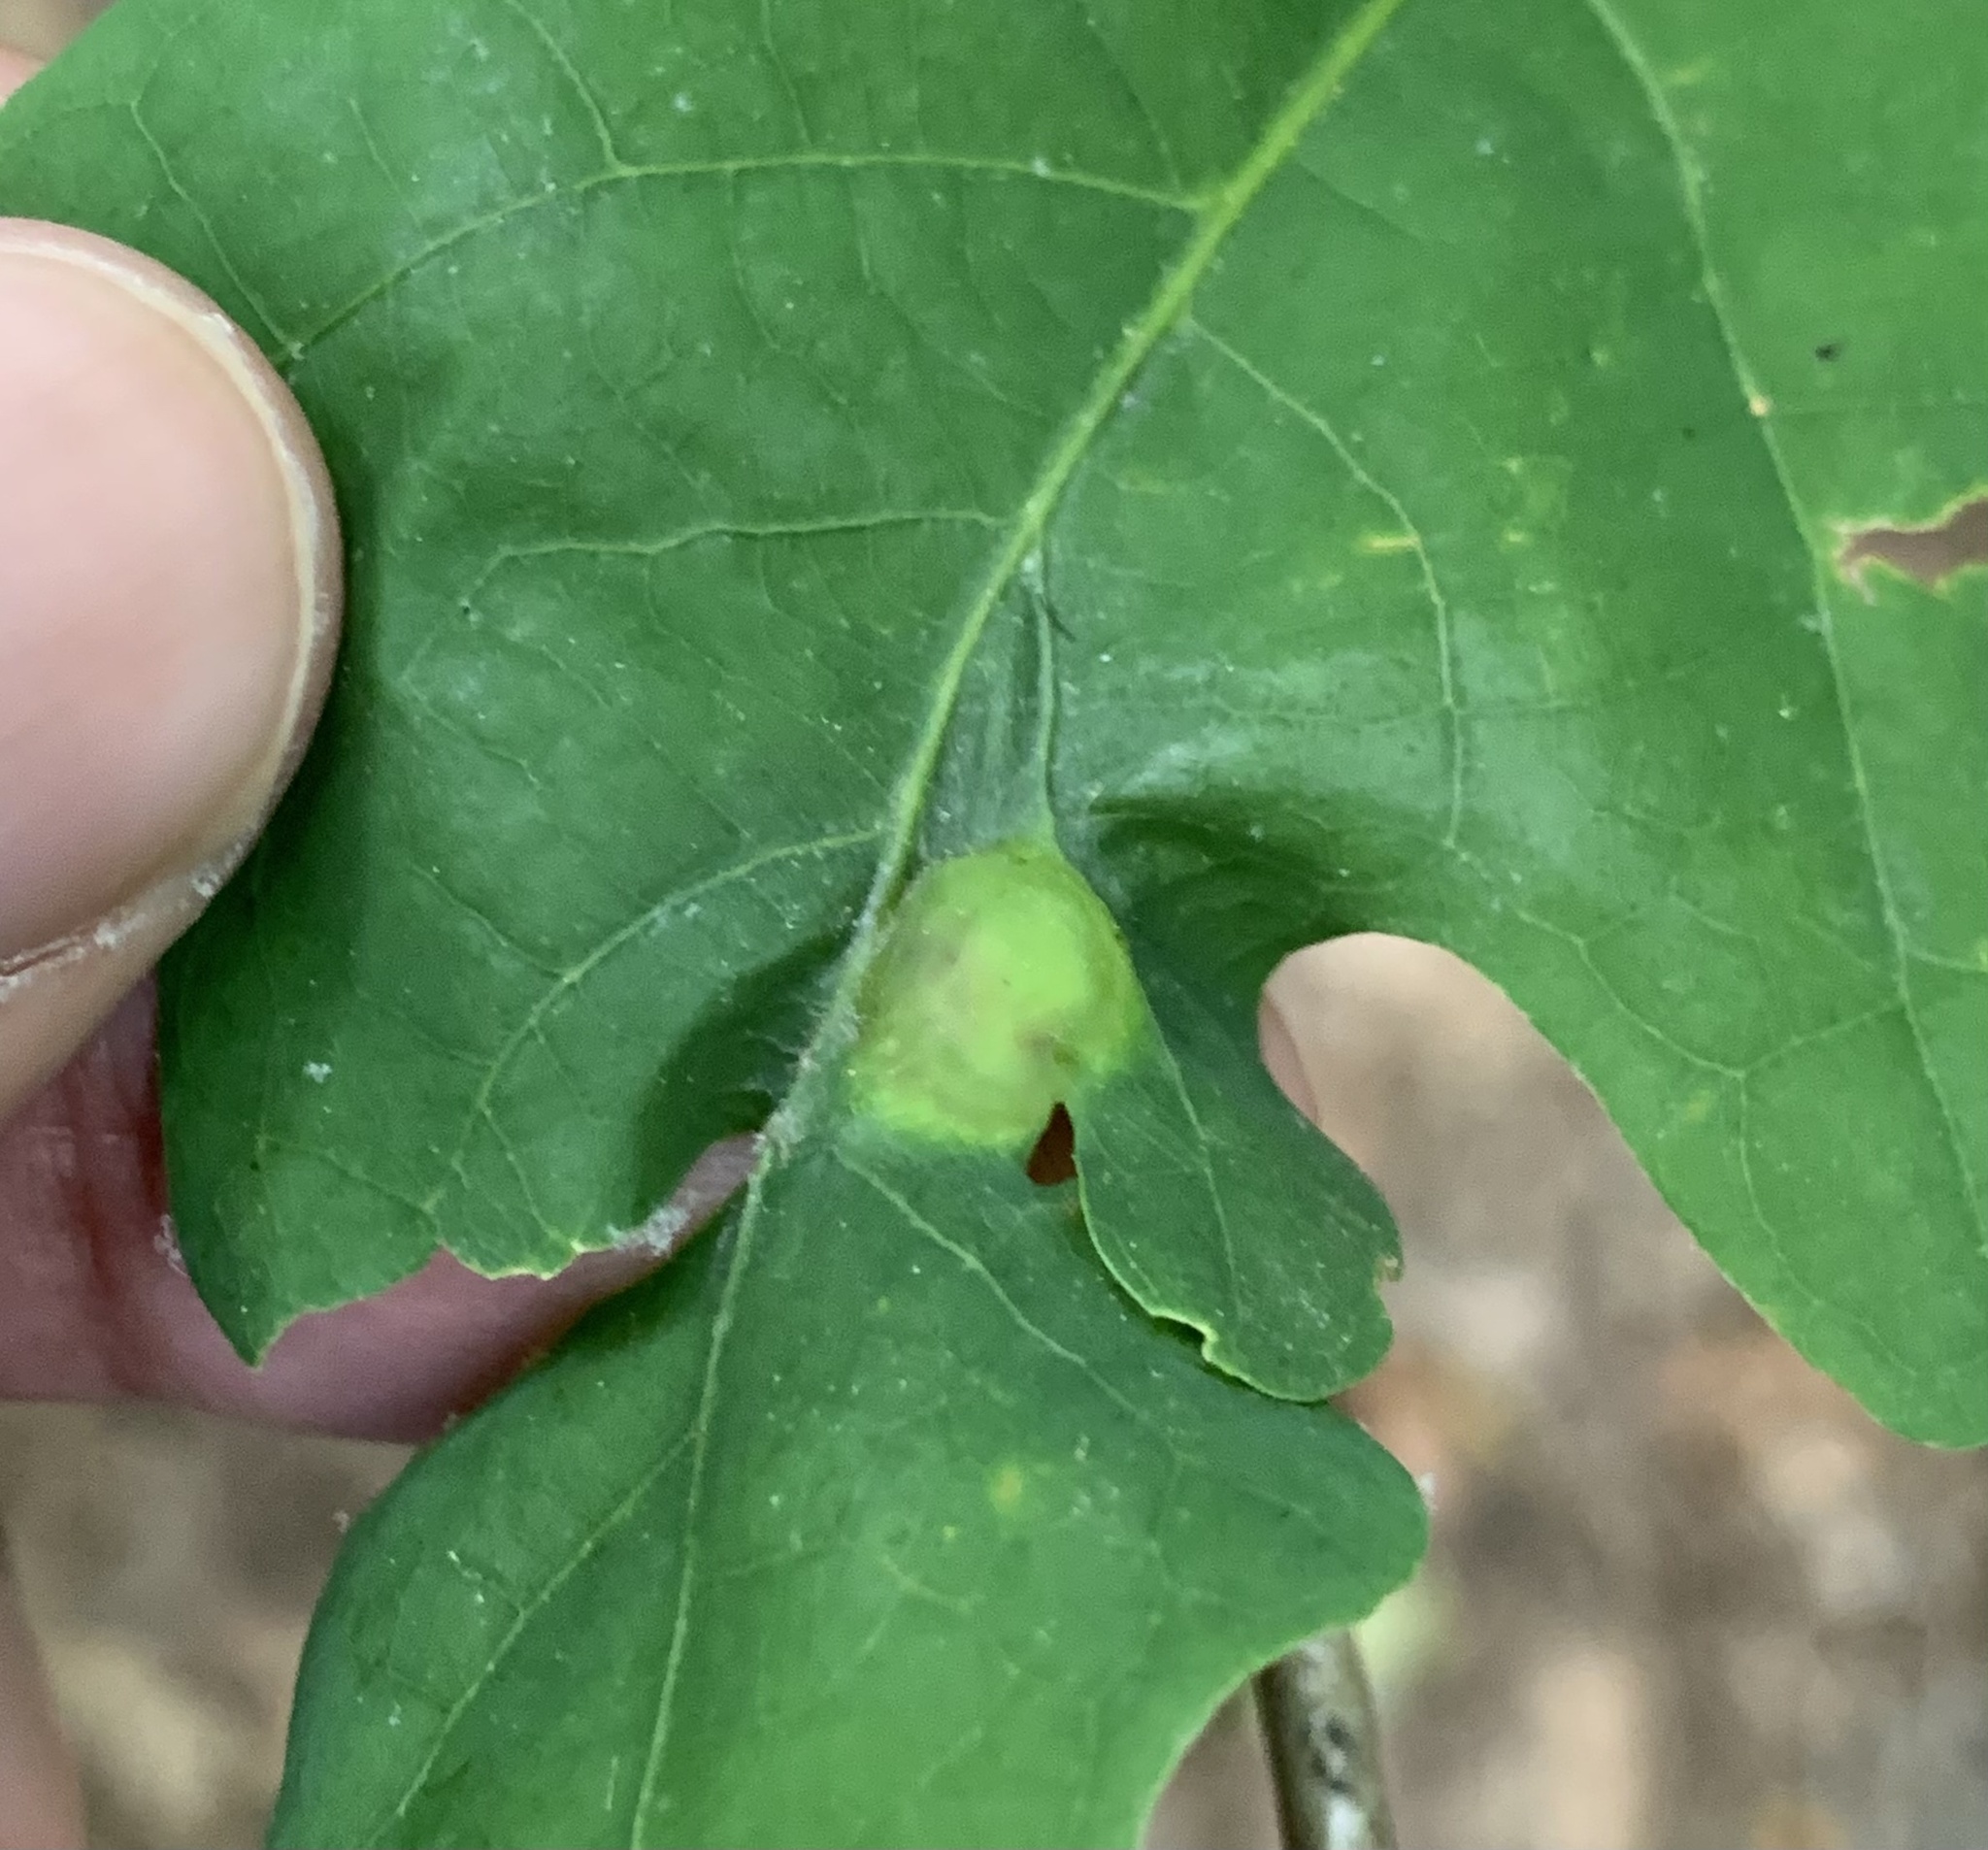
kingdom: Animalia
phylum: Arthropoda
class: Insecta
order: Hymenoptera
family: Cynipidae
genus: Callirhytis
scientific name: Callirhytis
